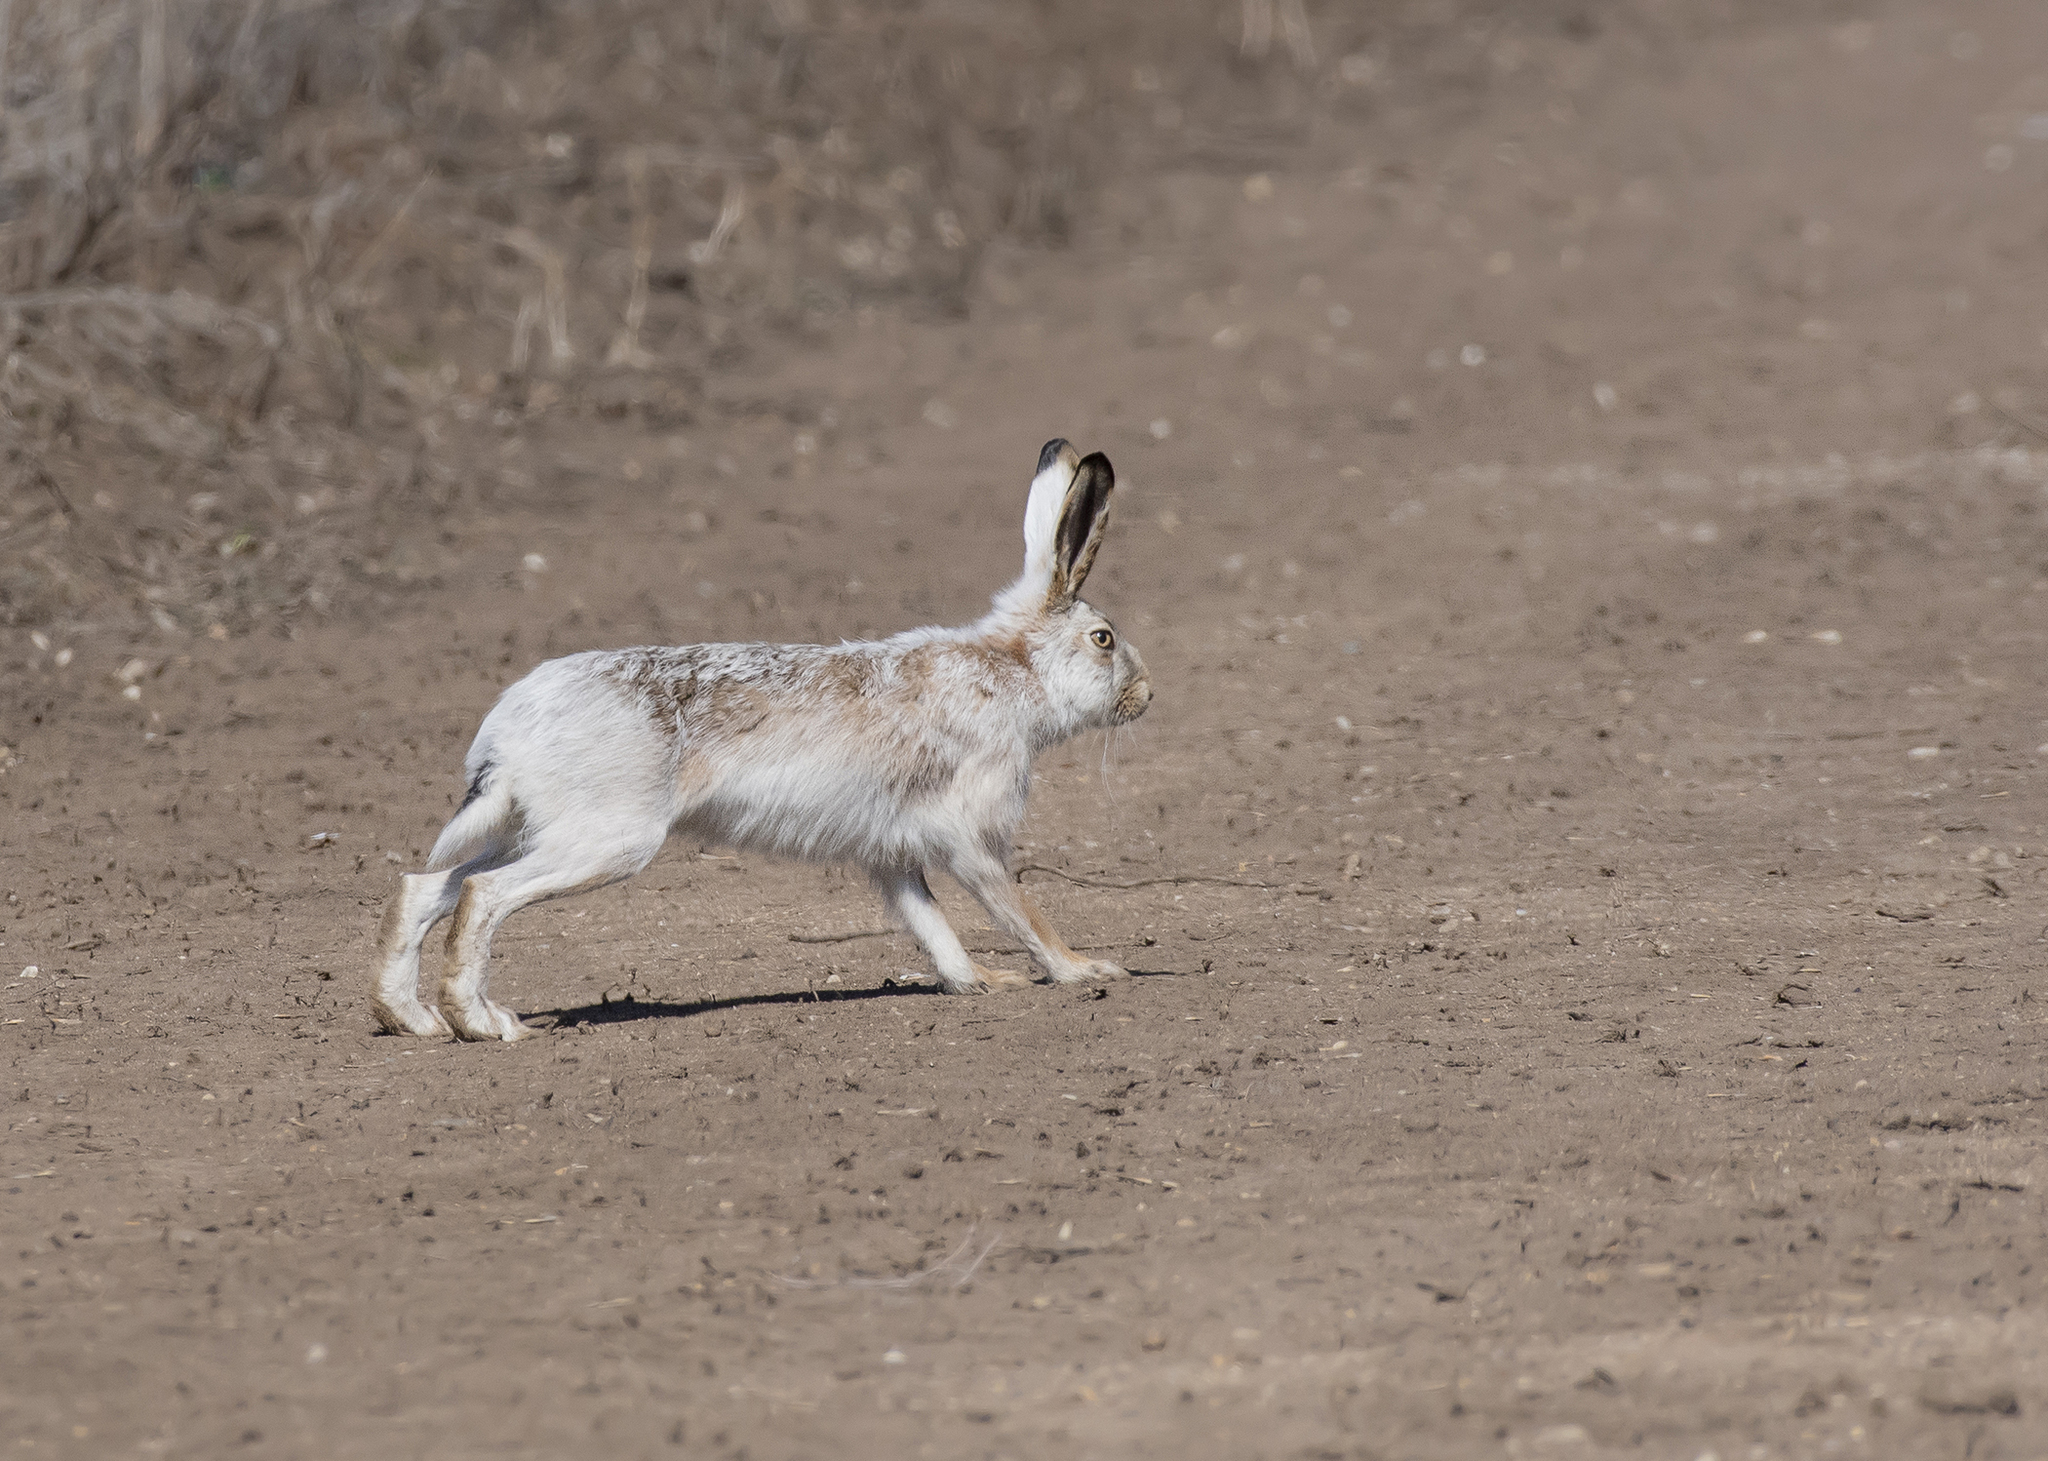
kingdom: Animalia
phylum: Chordata
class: Mammalia
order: Lagomorpha
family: Leporidae
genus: Lepus
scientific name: Lepus europaeus
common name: European hare
